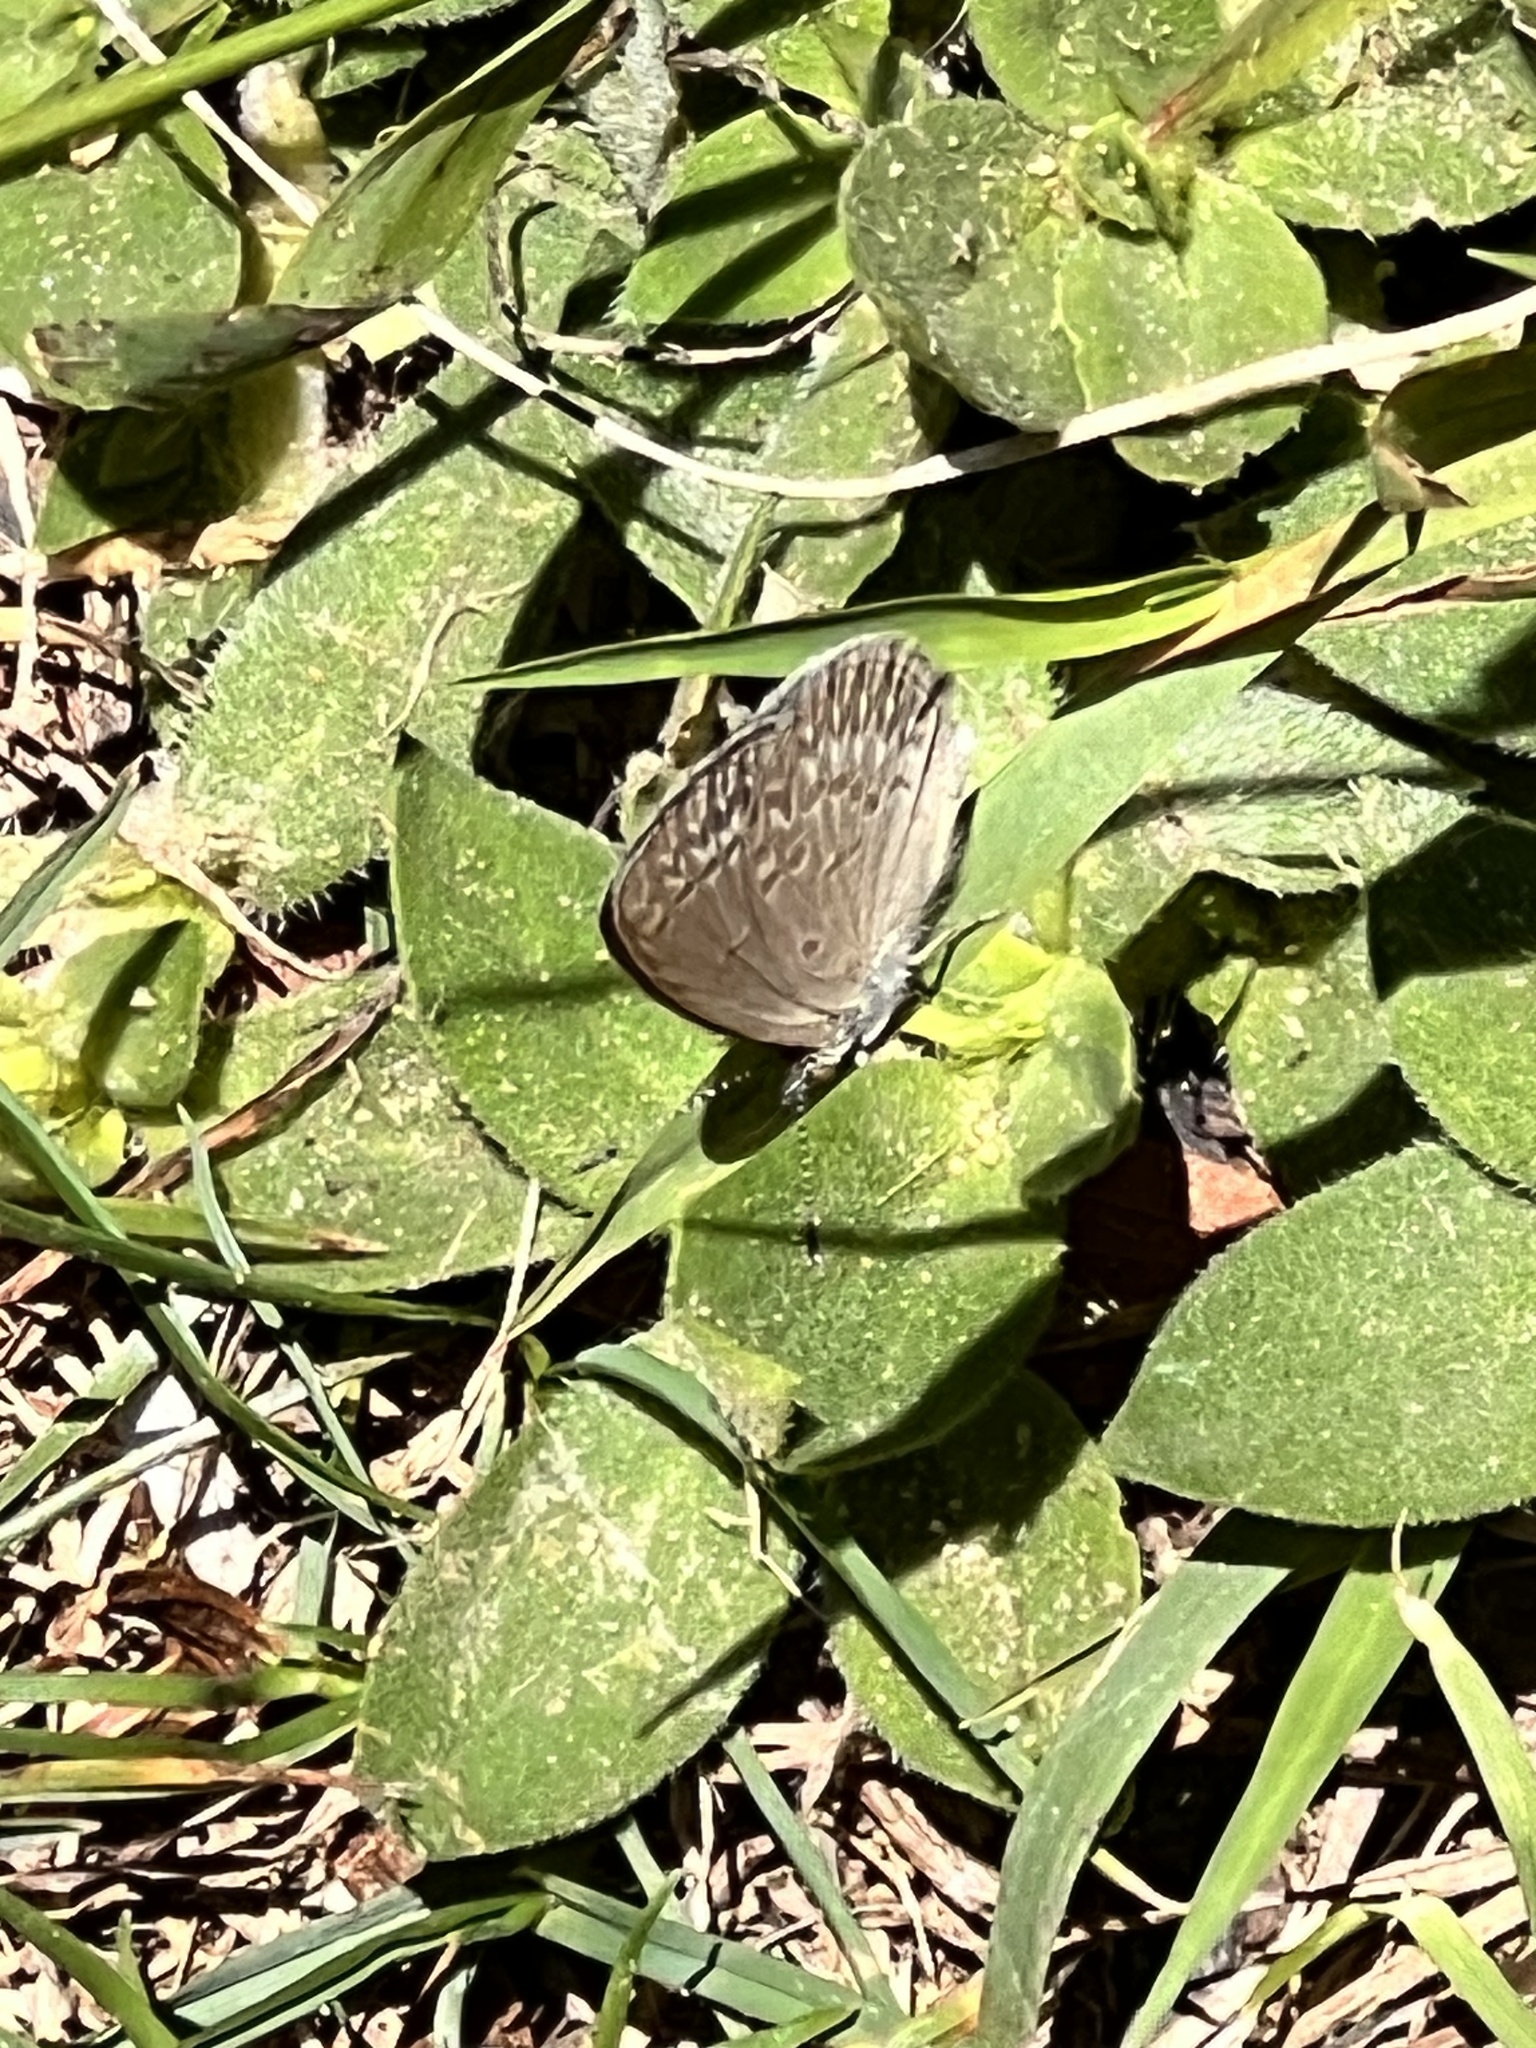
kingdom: Animalia
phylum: Arthropoda
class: Insecta
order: Lepidoptera
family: Lycaenidae
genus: Zizina
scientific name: Zizina otis
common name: Lesser grass blue
